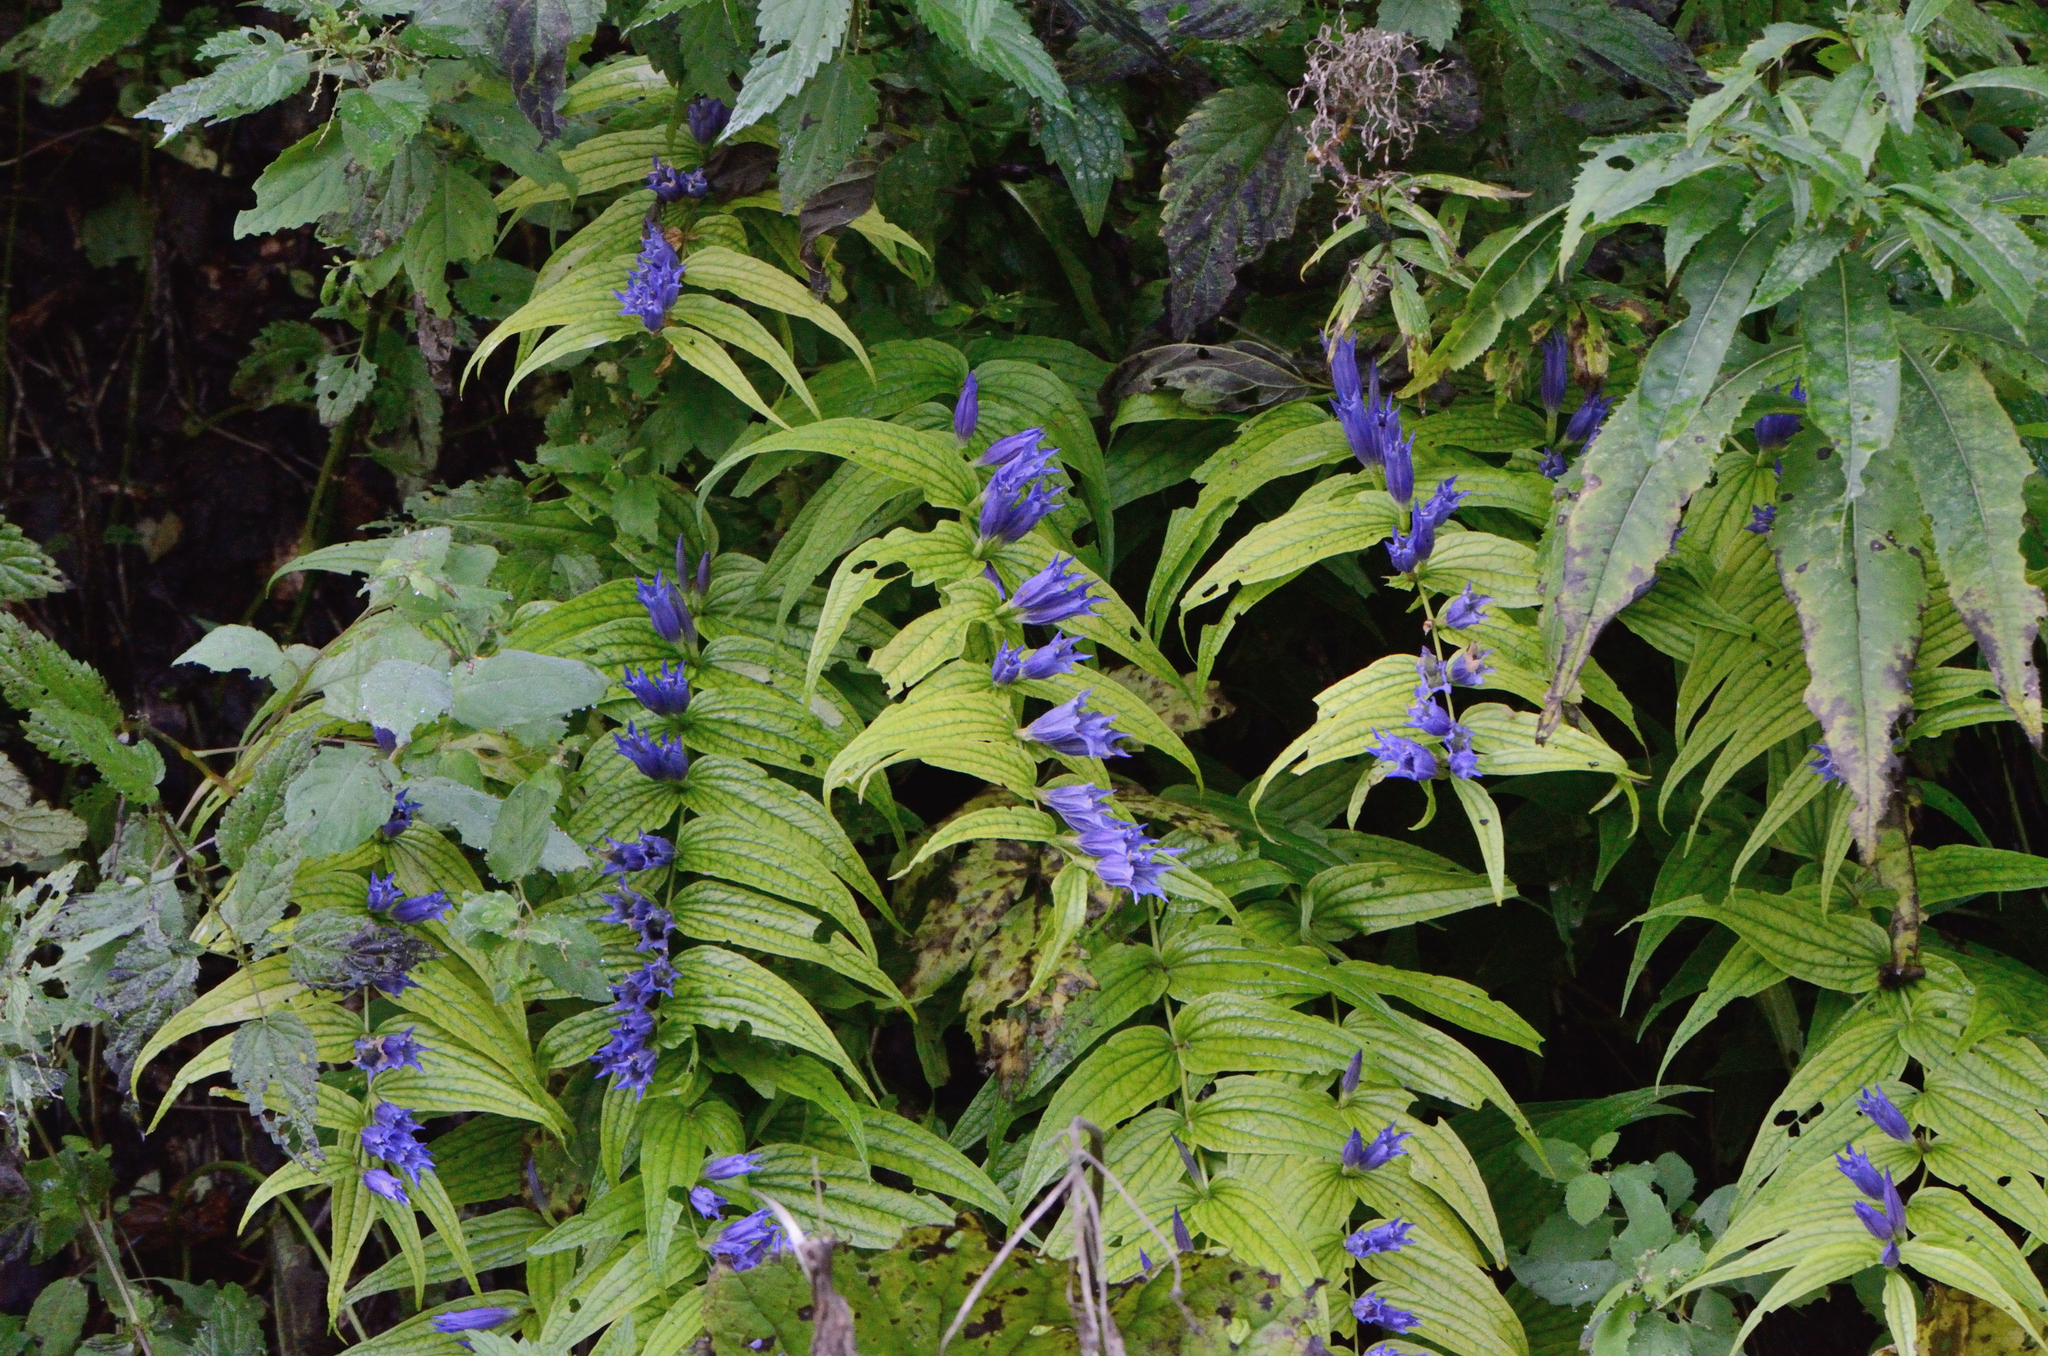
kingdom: Plantae
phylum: Tracheophyta
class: Magnoliopsida
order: Gentianales
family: Gentianaceae
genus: Gentiana
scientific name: Gentiana asclepiadea
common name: Willow gentian
